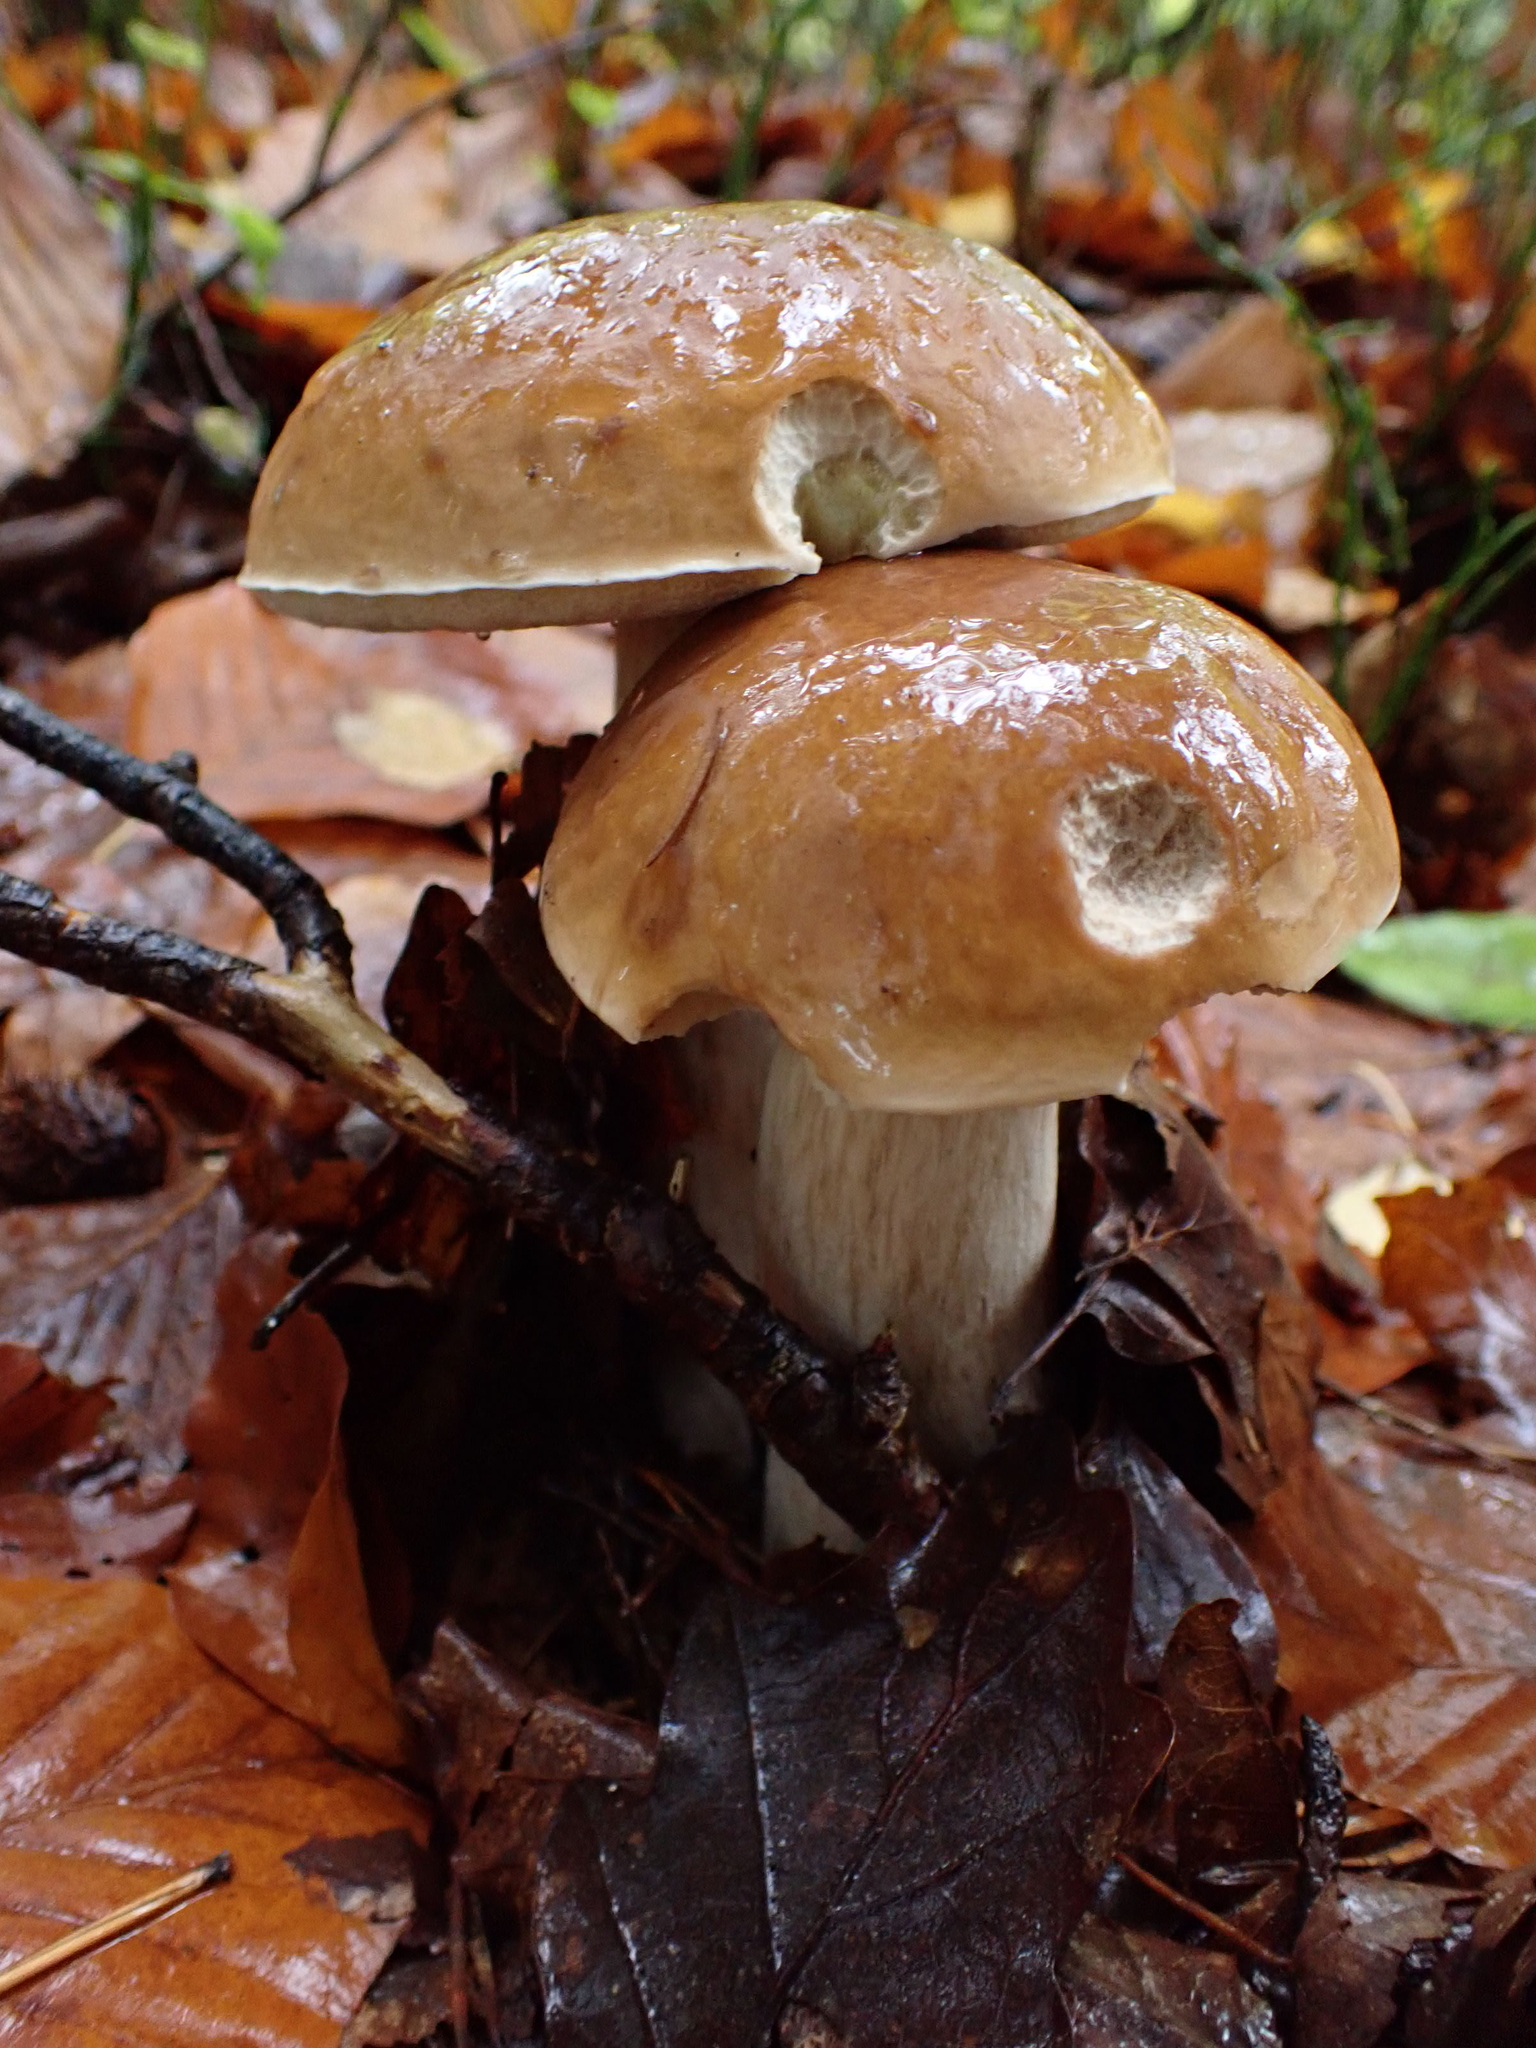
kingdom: Fungi
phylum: Basidiomycota
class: Agaricomycetes
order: Boletales
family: Boletaceae
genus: Boletus
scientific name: Boletus edulis
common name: Cep
